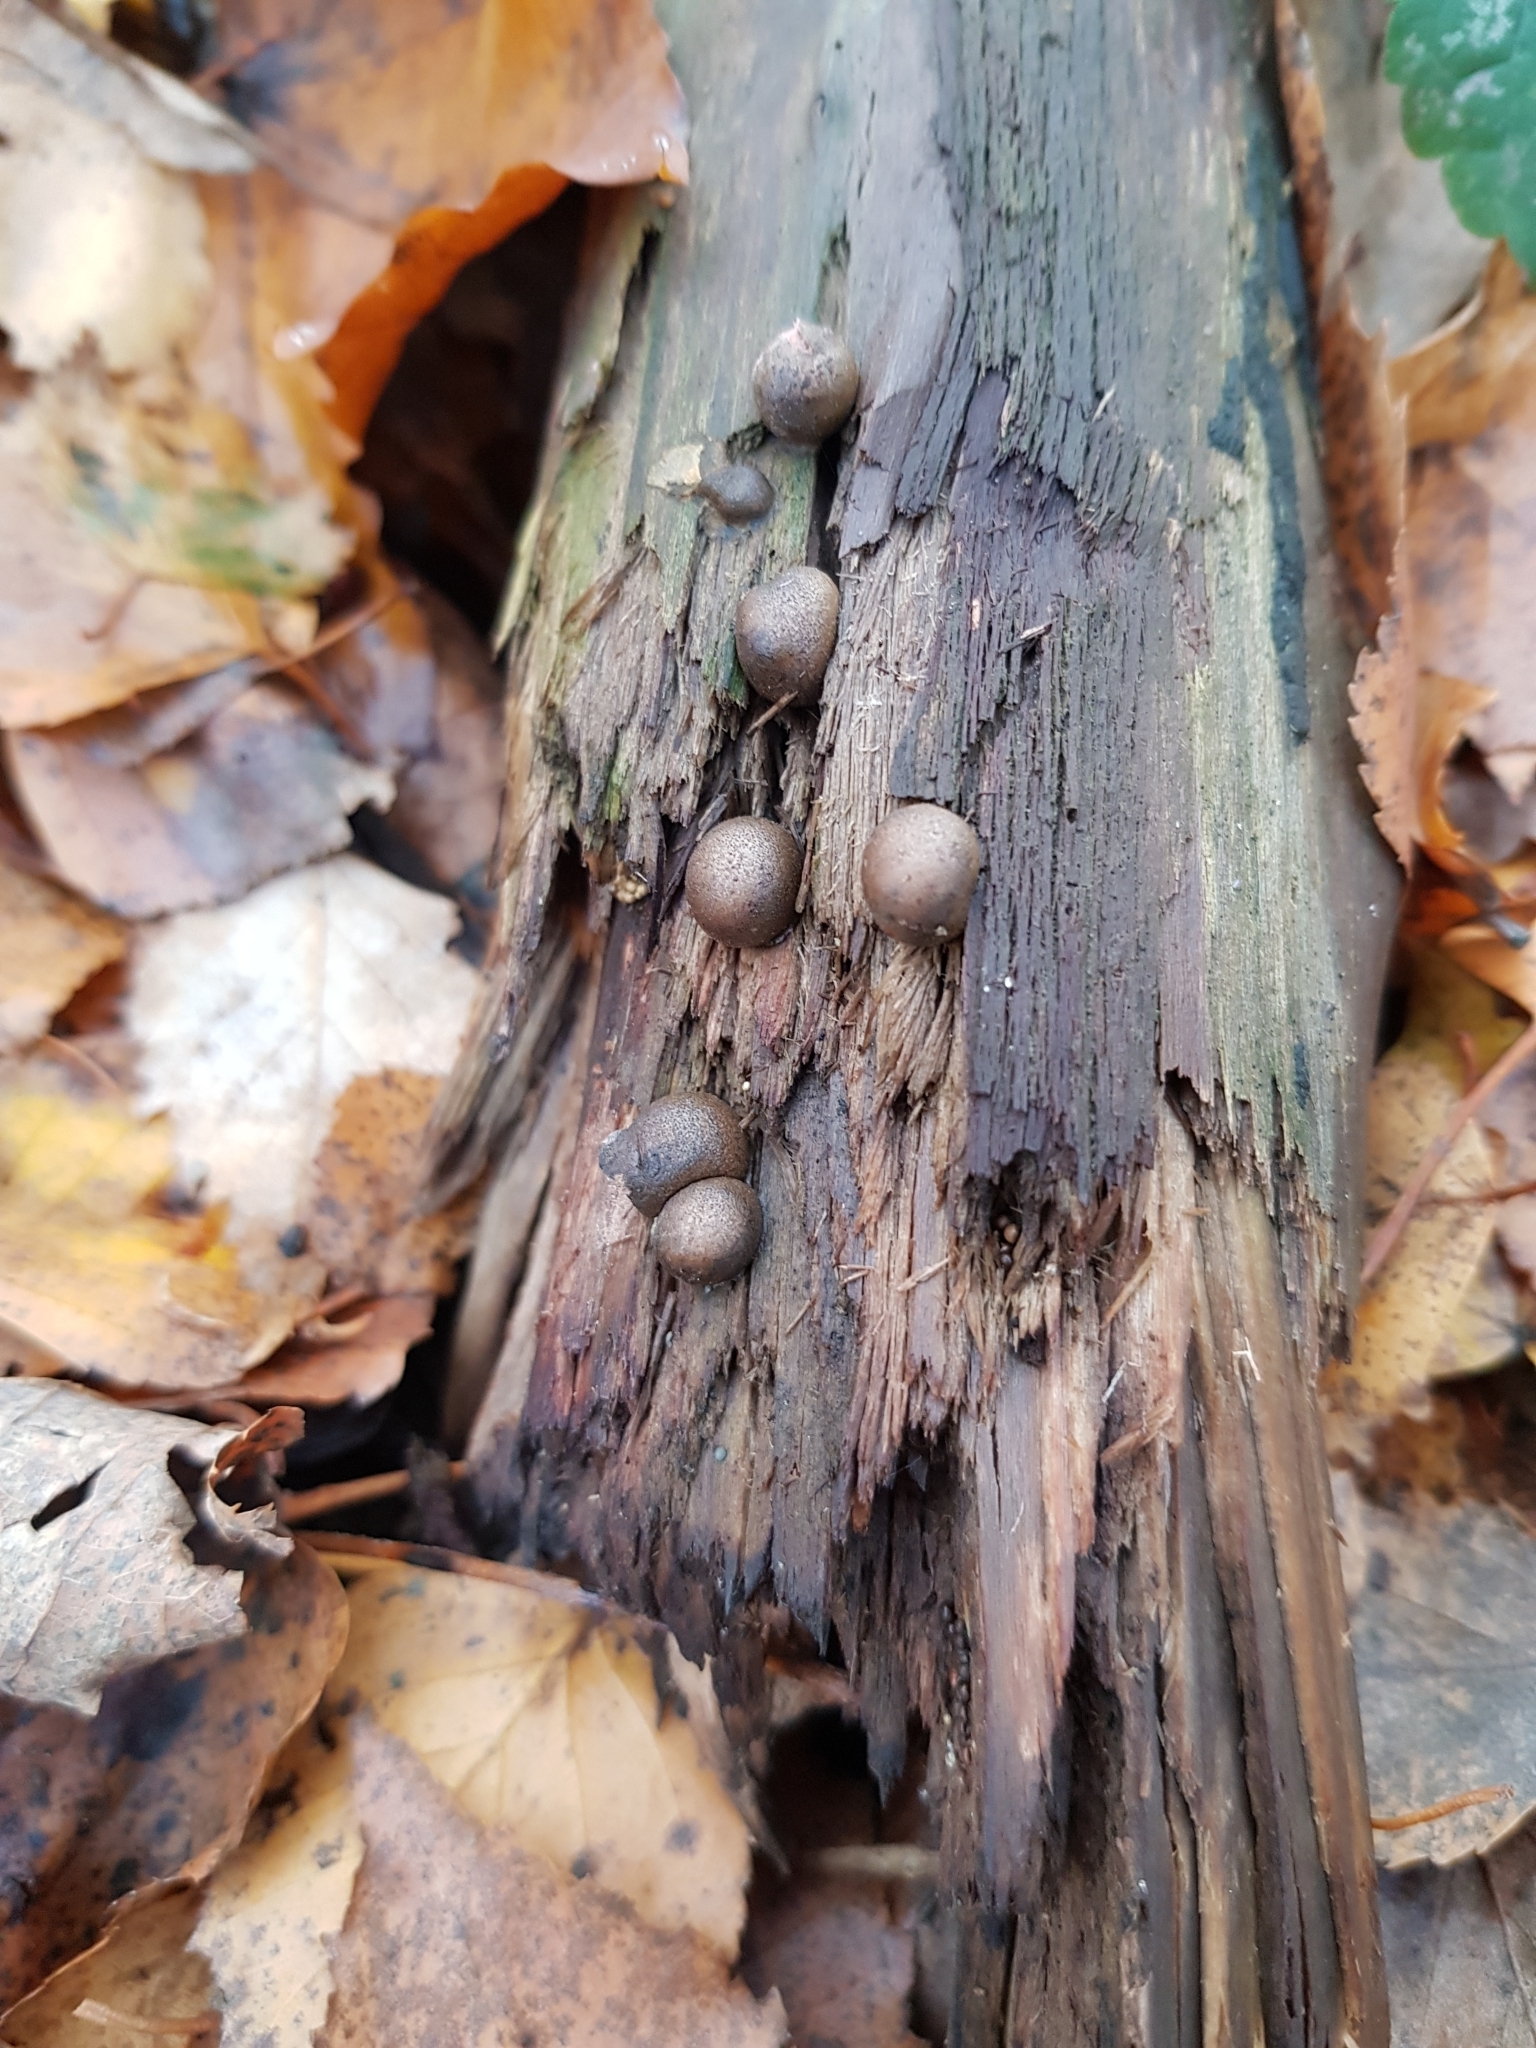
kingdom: Protozoa
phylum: Mycetozoa
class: Myxomycetes
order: Cribrariales
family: Tubiferaceae
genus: Lycogala
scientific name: Lycogala epidendrum
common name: Wolf's milk
